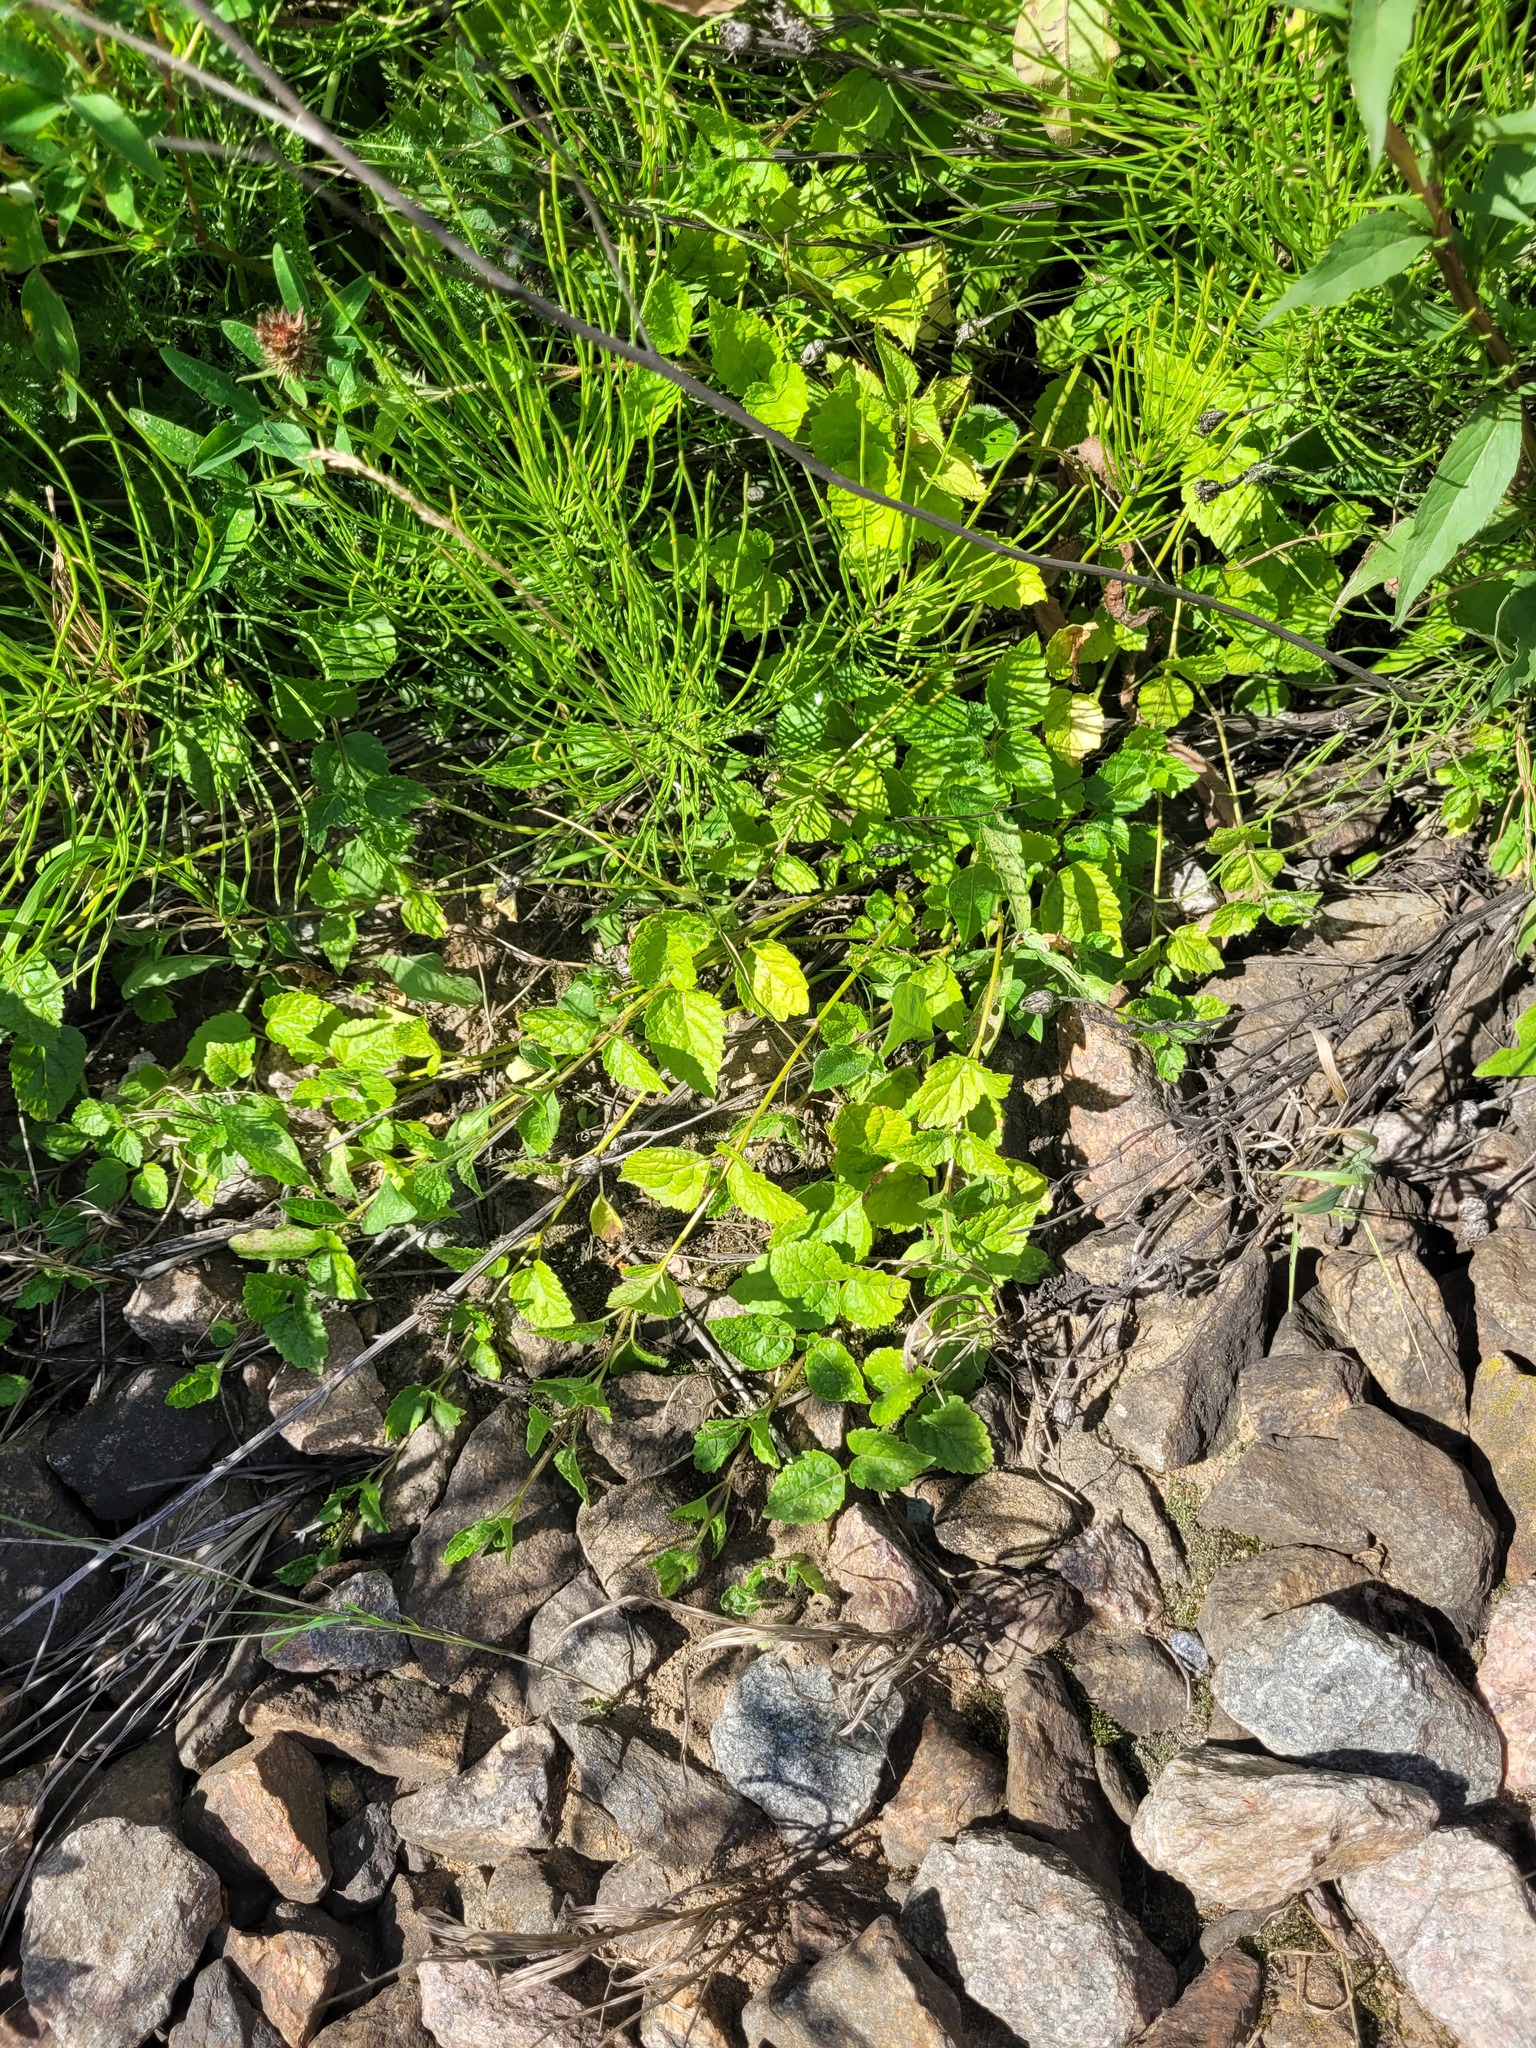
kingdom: Plantae
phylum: Tracheophyta
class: Magnoliopsida
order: Lamiales
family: Lamiaceae
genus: Lamium
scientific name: Lamium galeobdolon
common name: Yellow archangel
